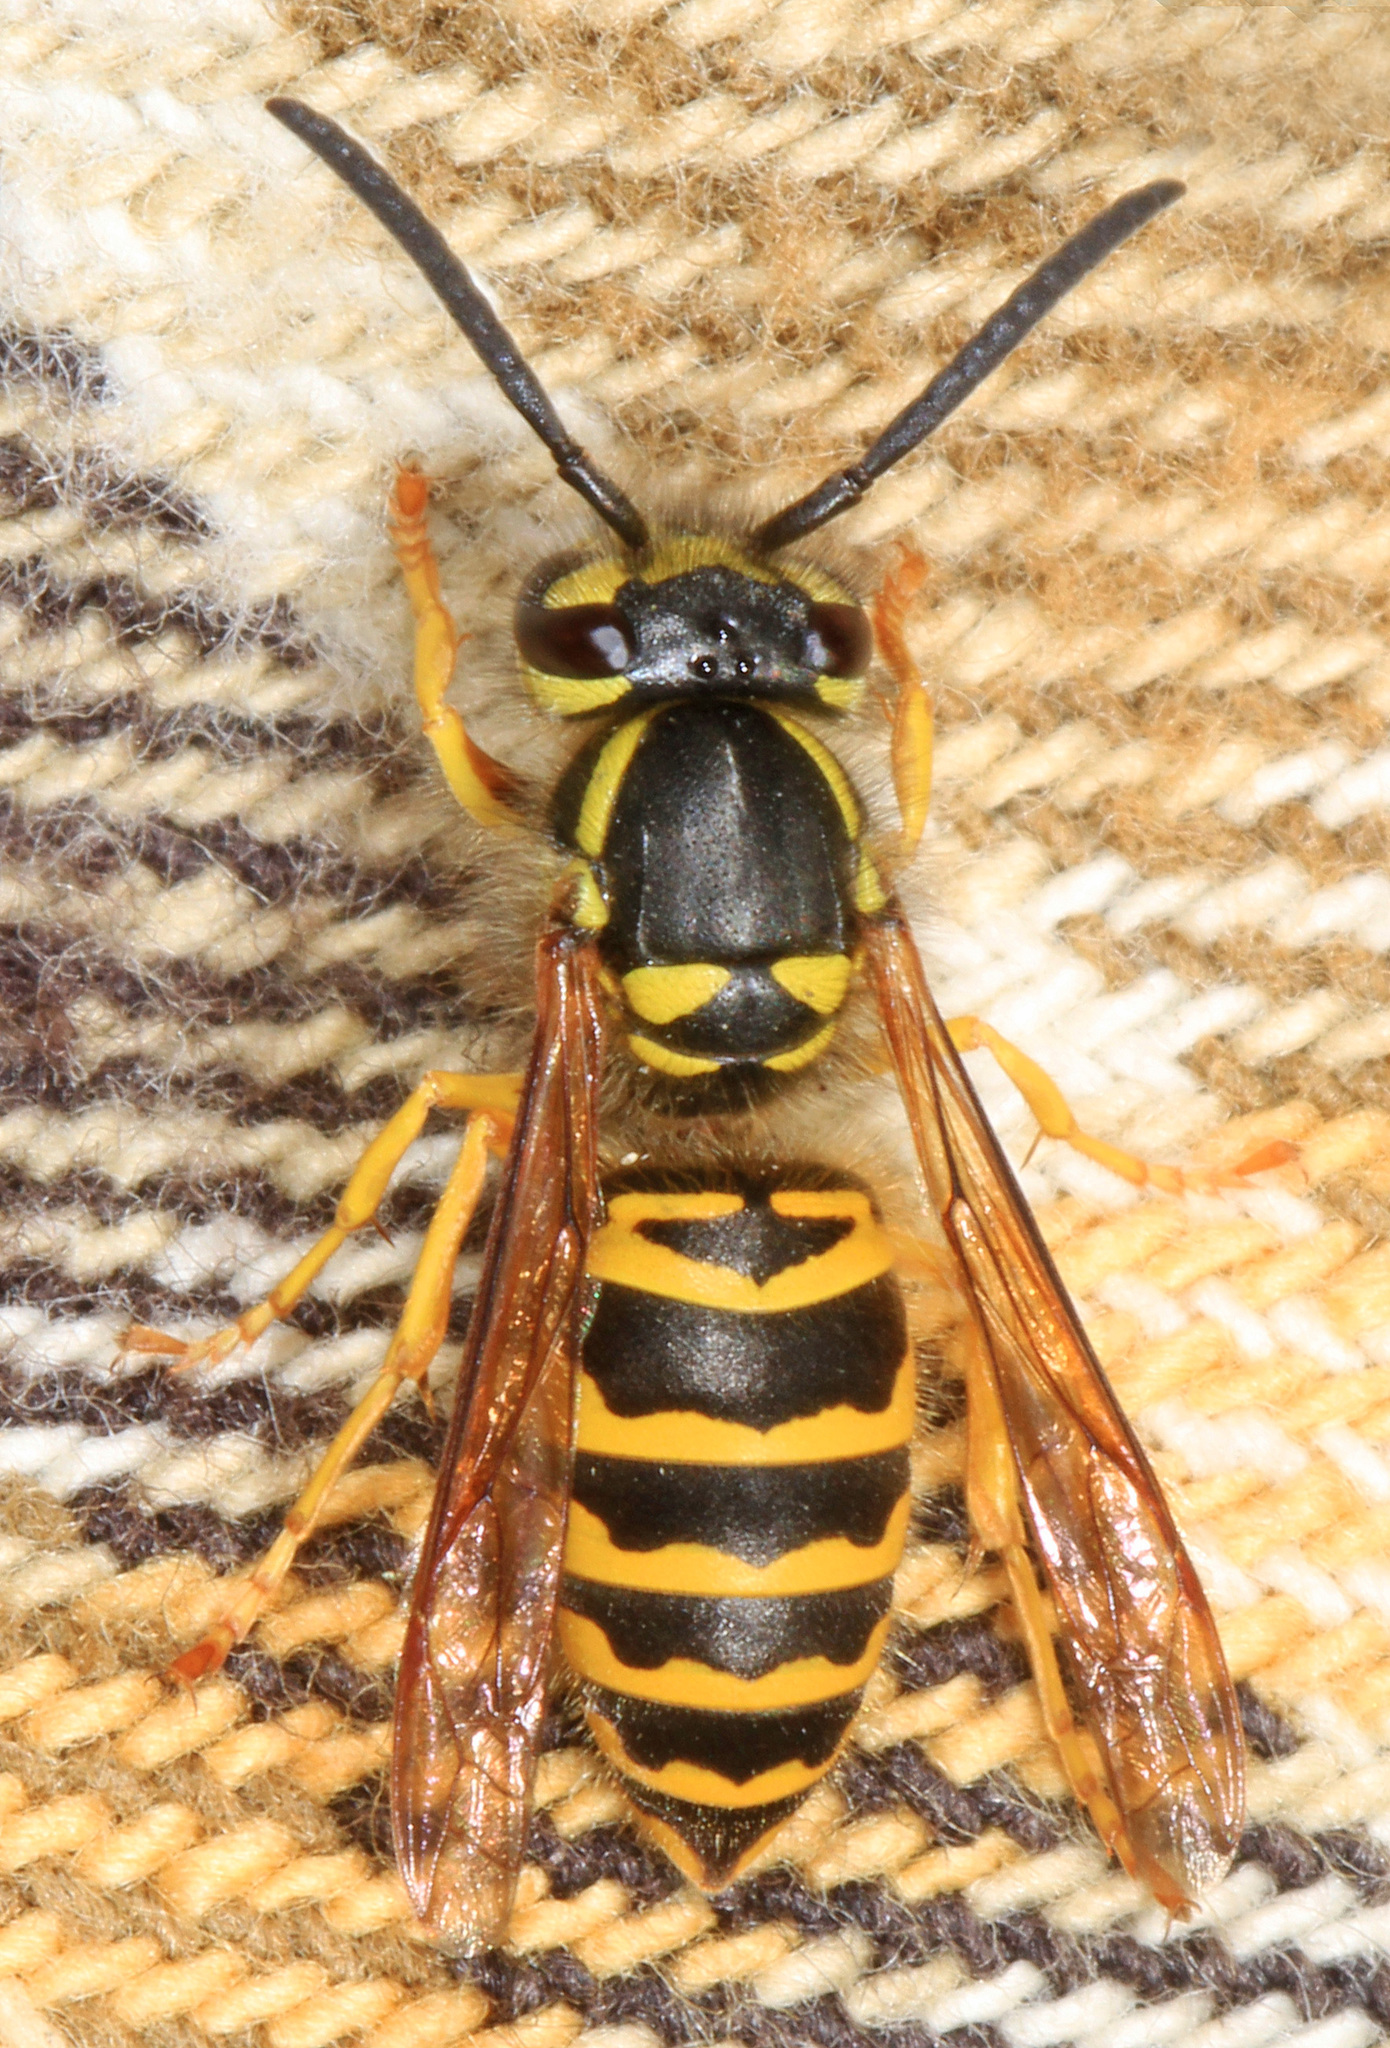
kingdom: Animalia
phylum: Arthropoda
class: Insecta
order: Hymenoptera
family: Vespidae
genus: Vespula
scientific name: Vespula maculifrons
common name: Eastern yellowjacket
